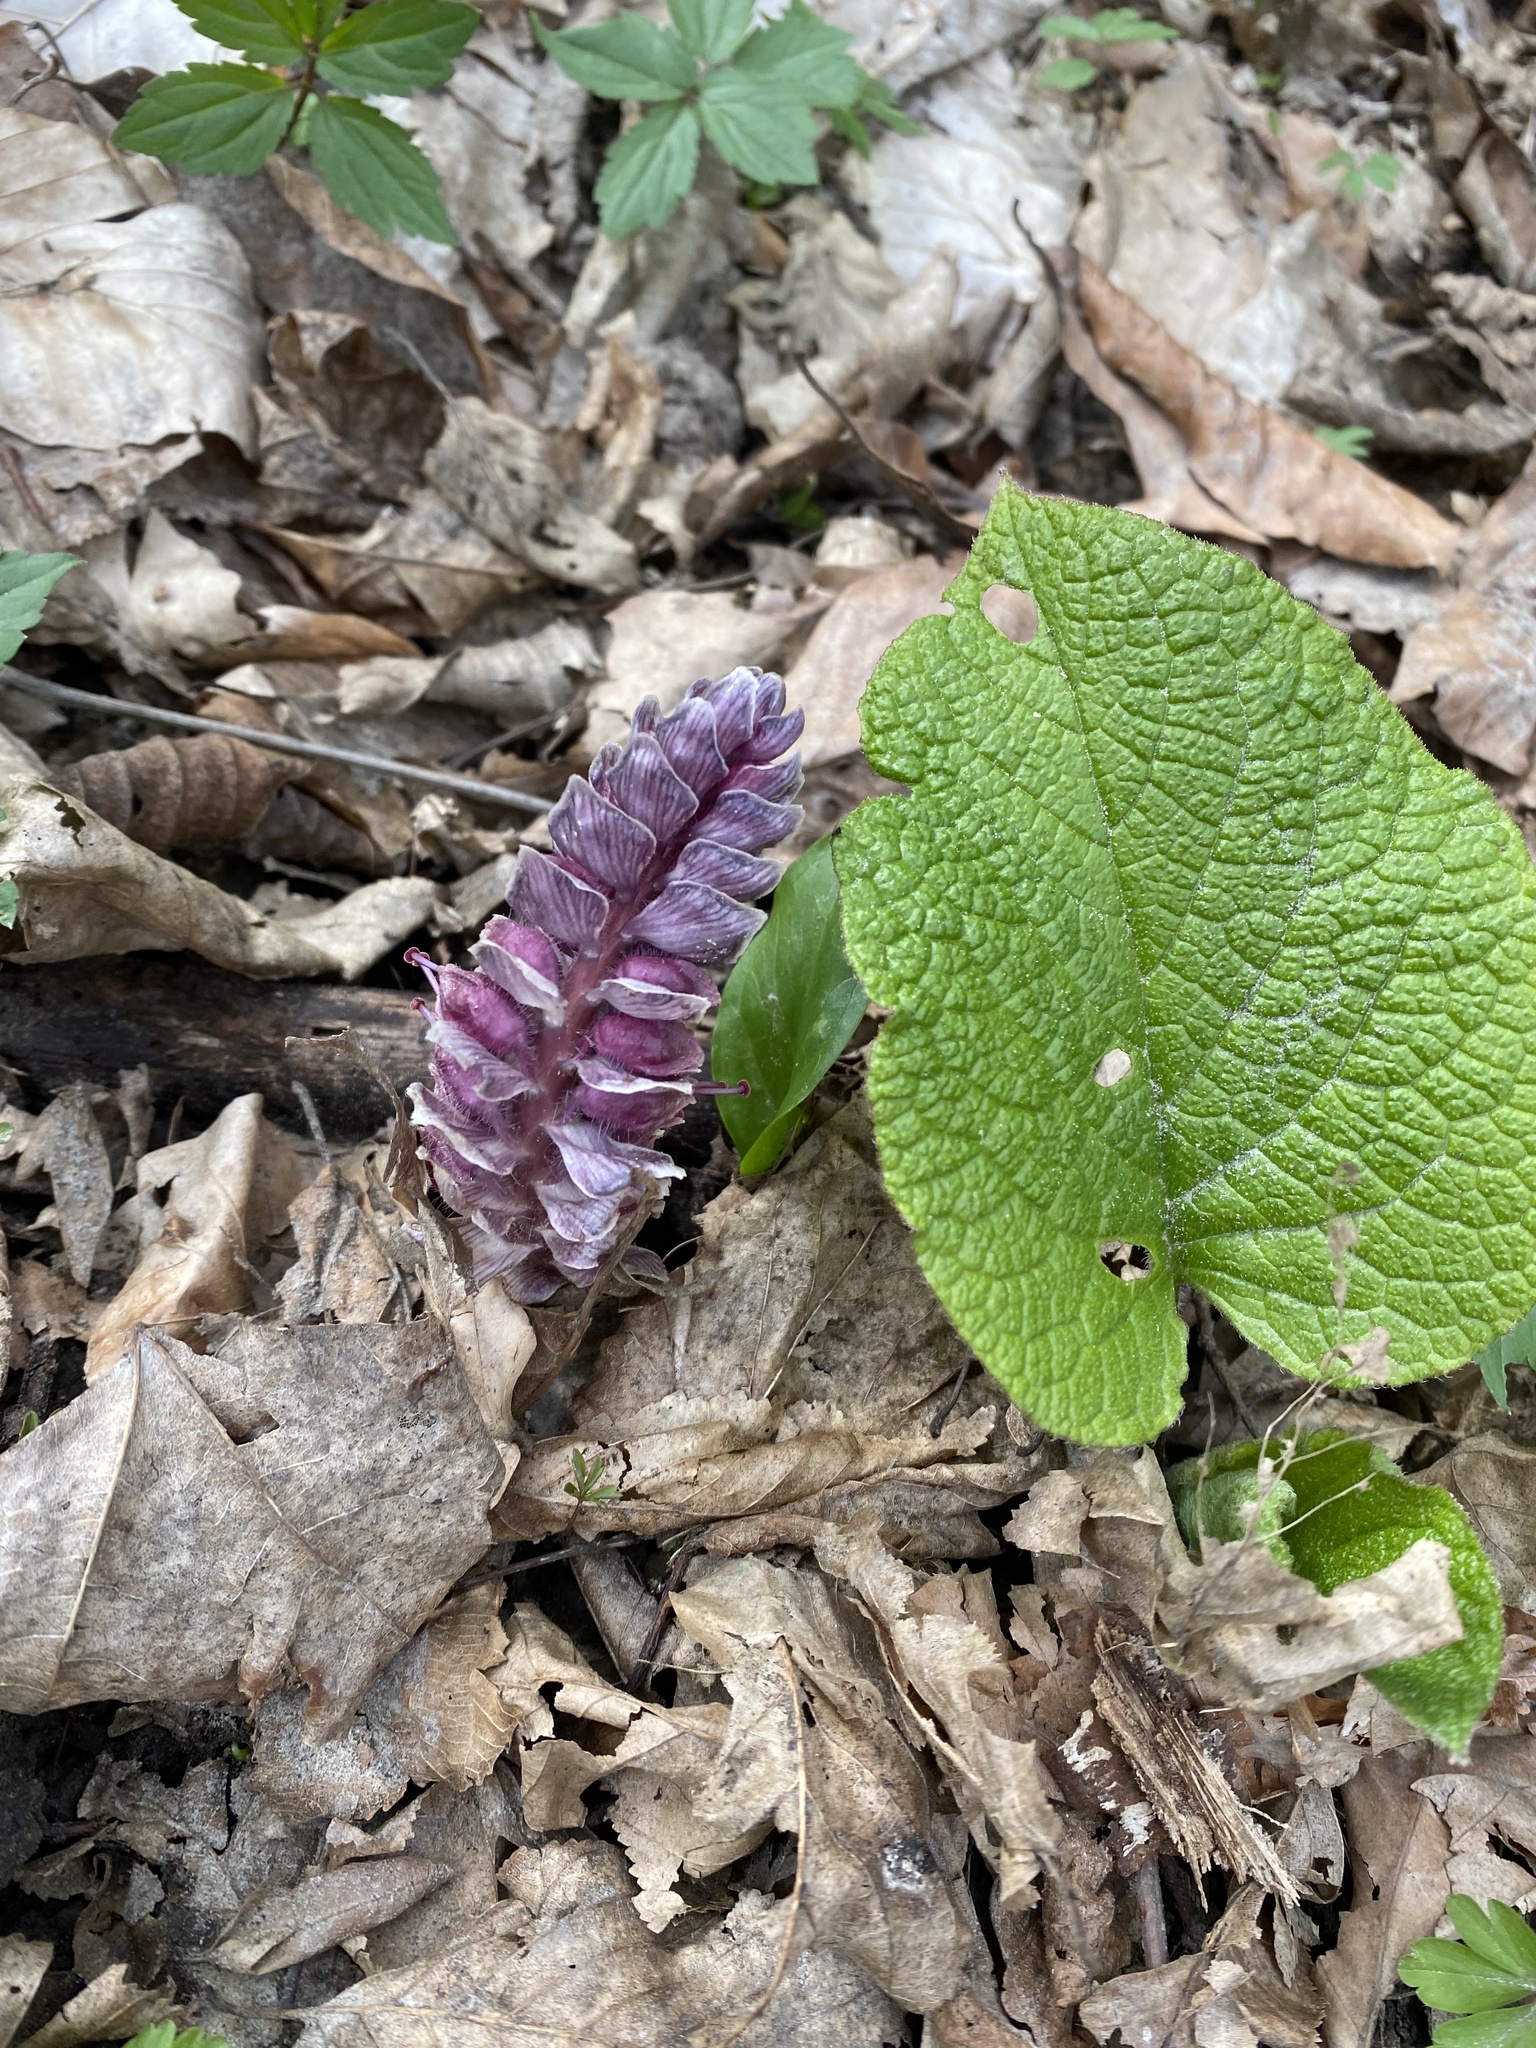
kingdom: Plantae
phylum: Tracheophyta
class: Magnoliopsida
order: Lamiales
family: Orobanchaceae
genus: Lathraea
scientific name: Lathraea squamaria
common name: Toothwort
